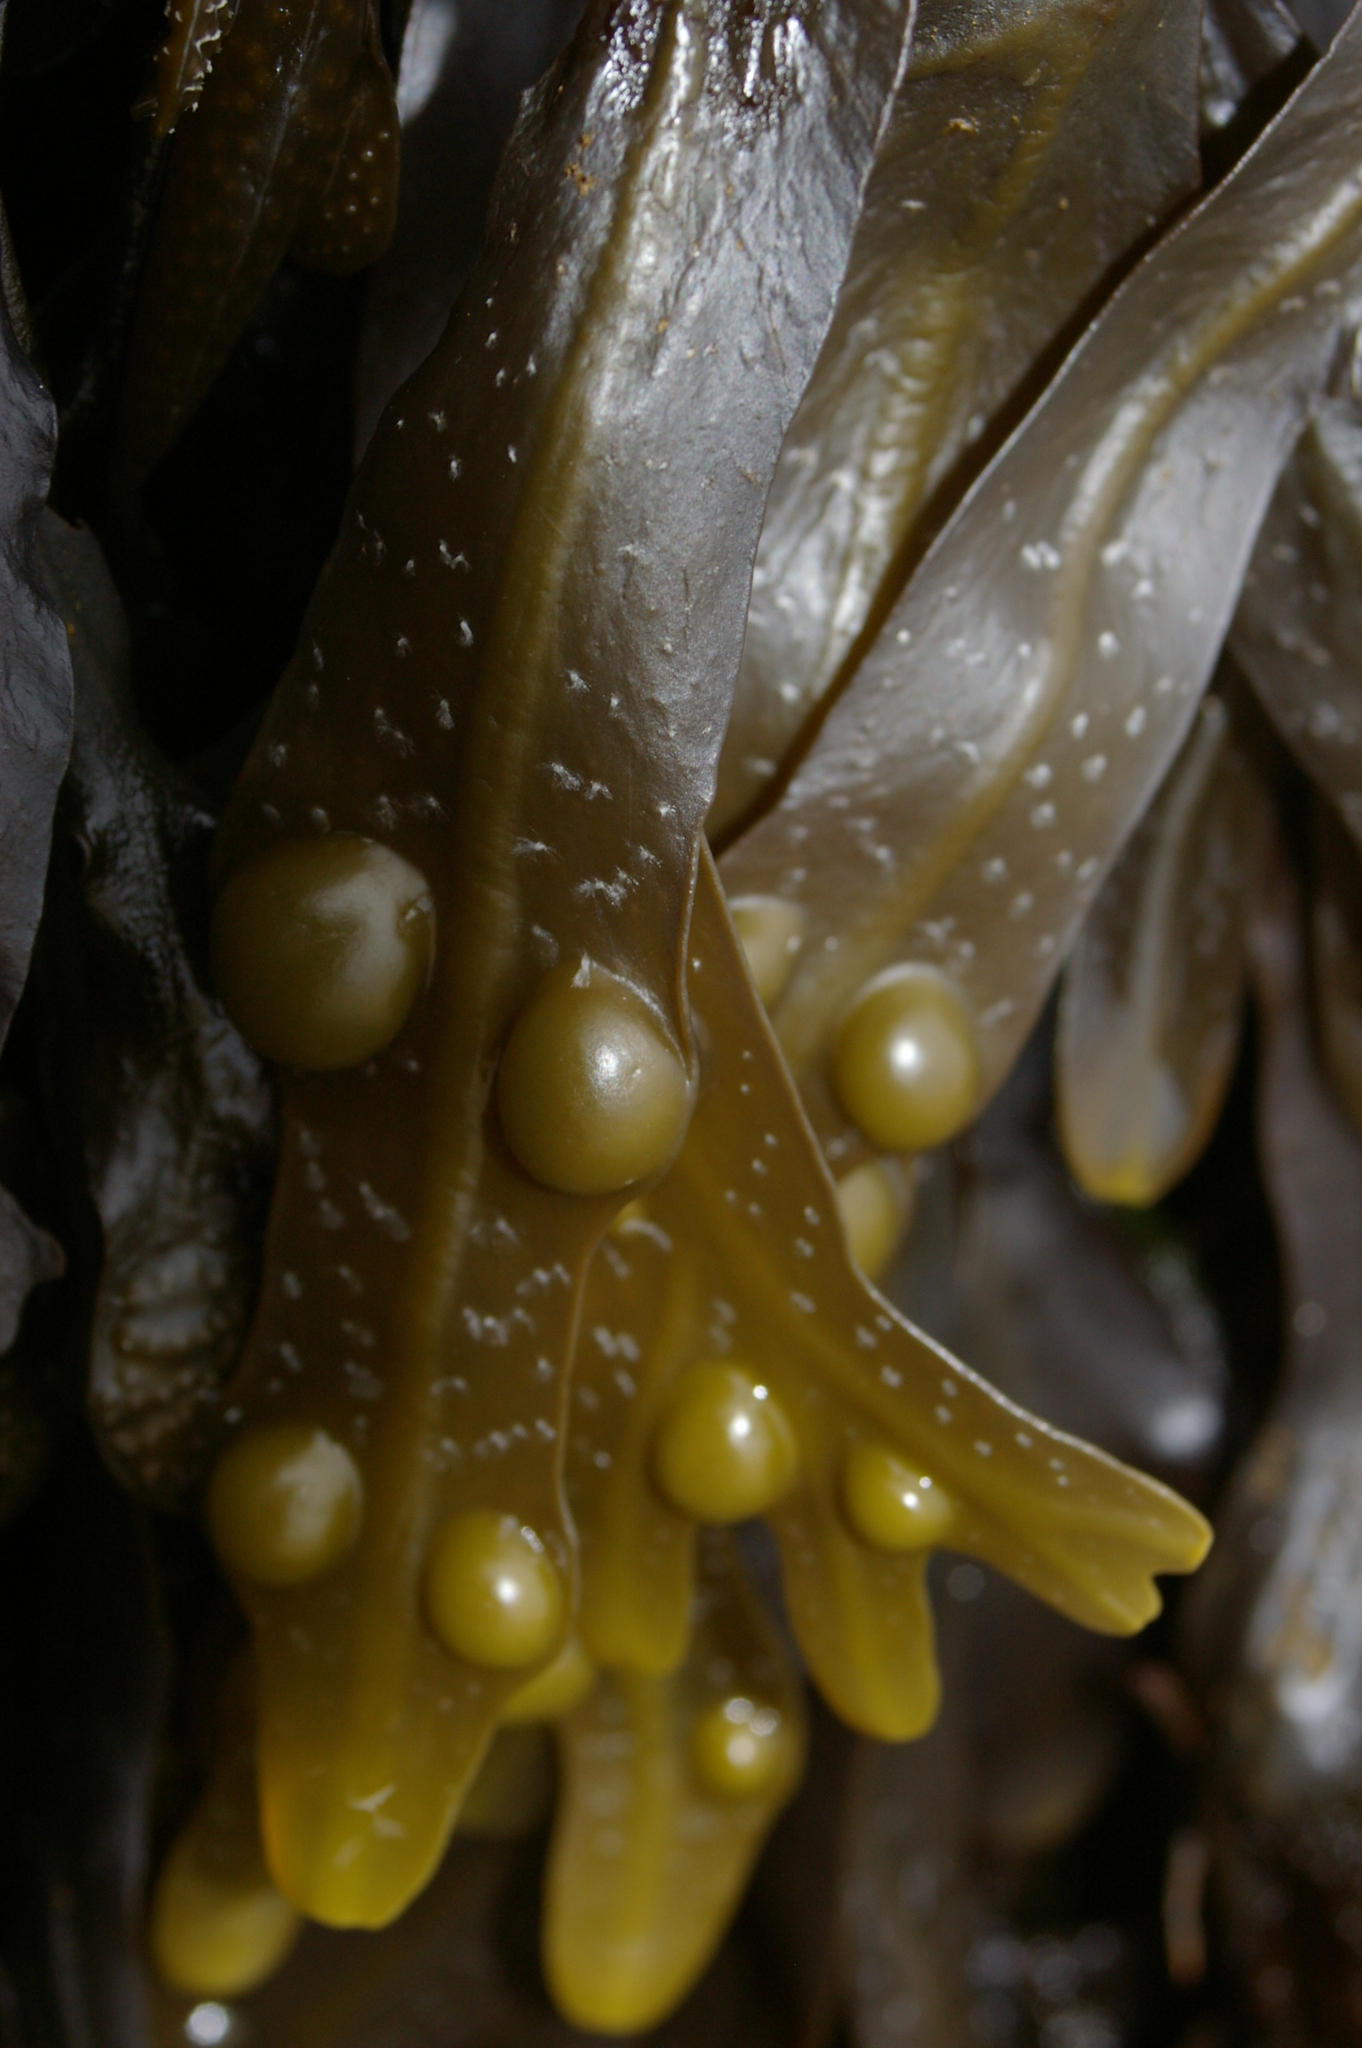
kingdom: Chromista
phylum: Ochrophyta
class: Phaeophyceae
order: Fucales
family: Fucaceae
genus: Fucus
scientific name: Fucus vesiculosus
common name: Bladder wrack
